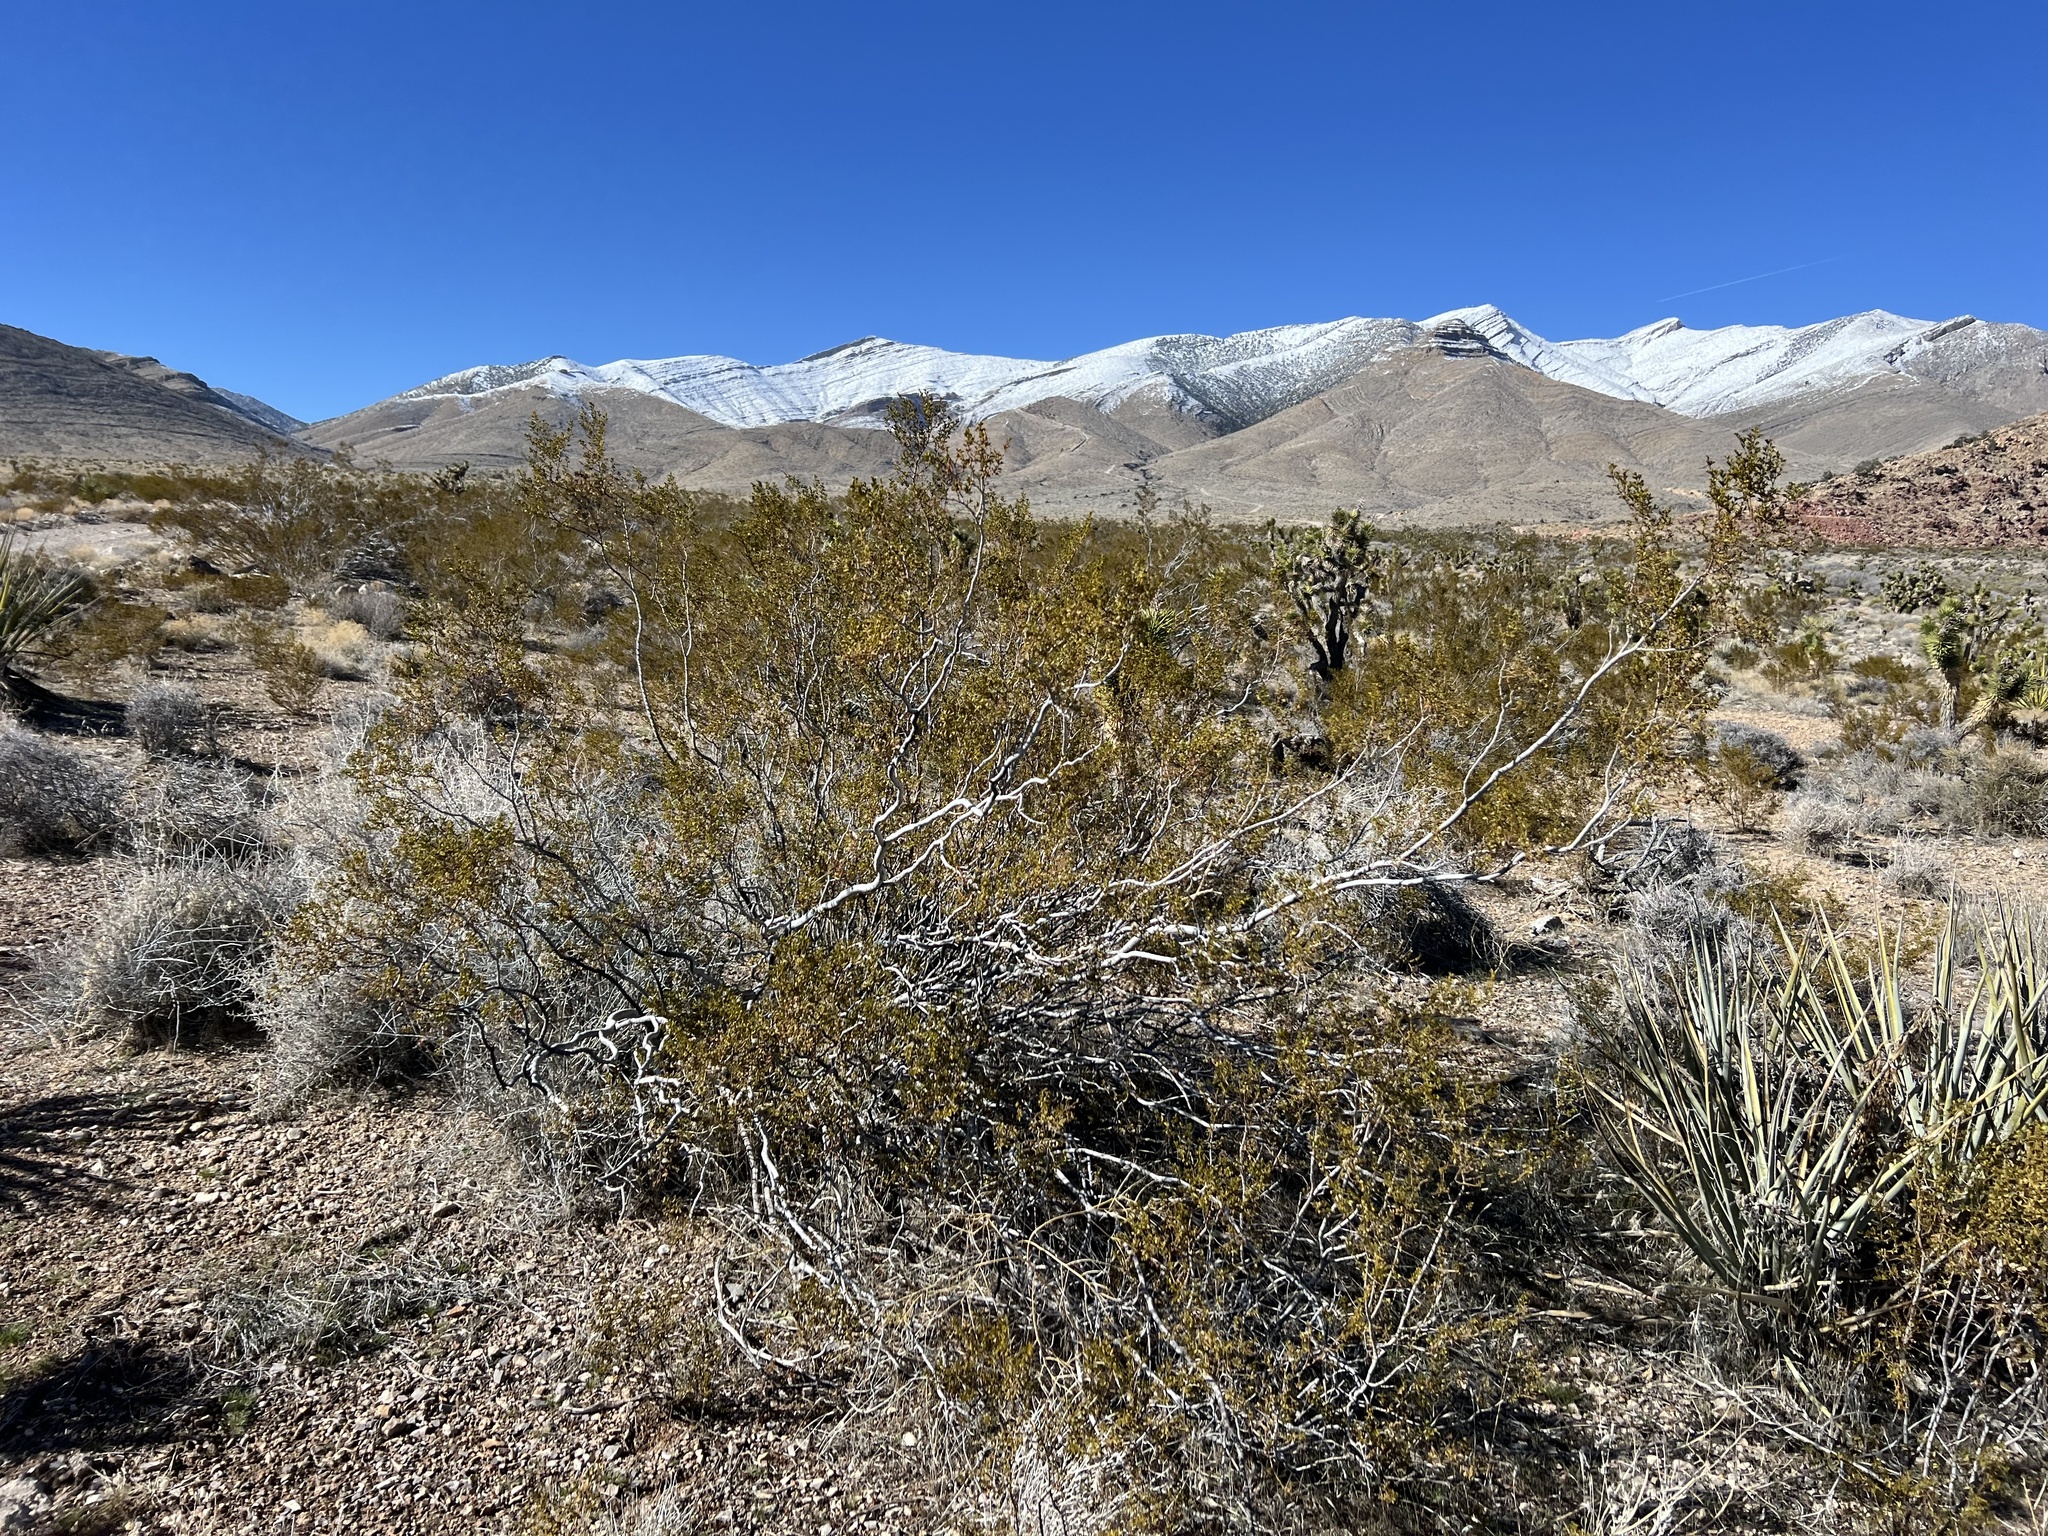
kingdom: Plantae
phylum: Tracheophyta
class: Magnoliopsida
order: Zygophyllales
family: Zygophyllaceae
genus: Larrea
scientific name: Larrea tridentata
